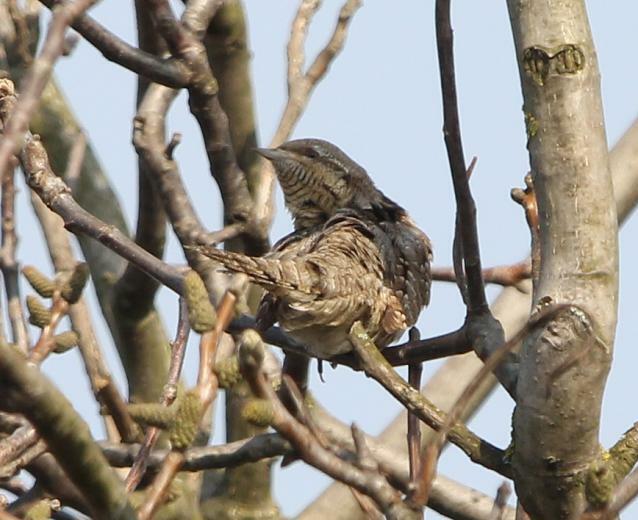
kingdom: Animalia
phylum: Chordata
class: Aves
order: Piciformes
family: Picidae
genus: Jynx
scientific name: Jynx torquilla
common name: Eurasian wryneck
